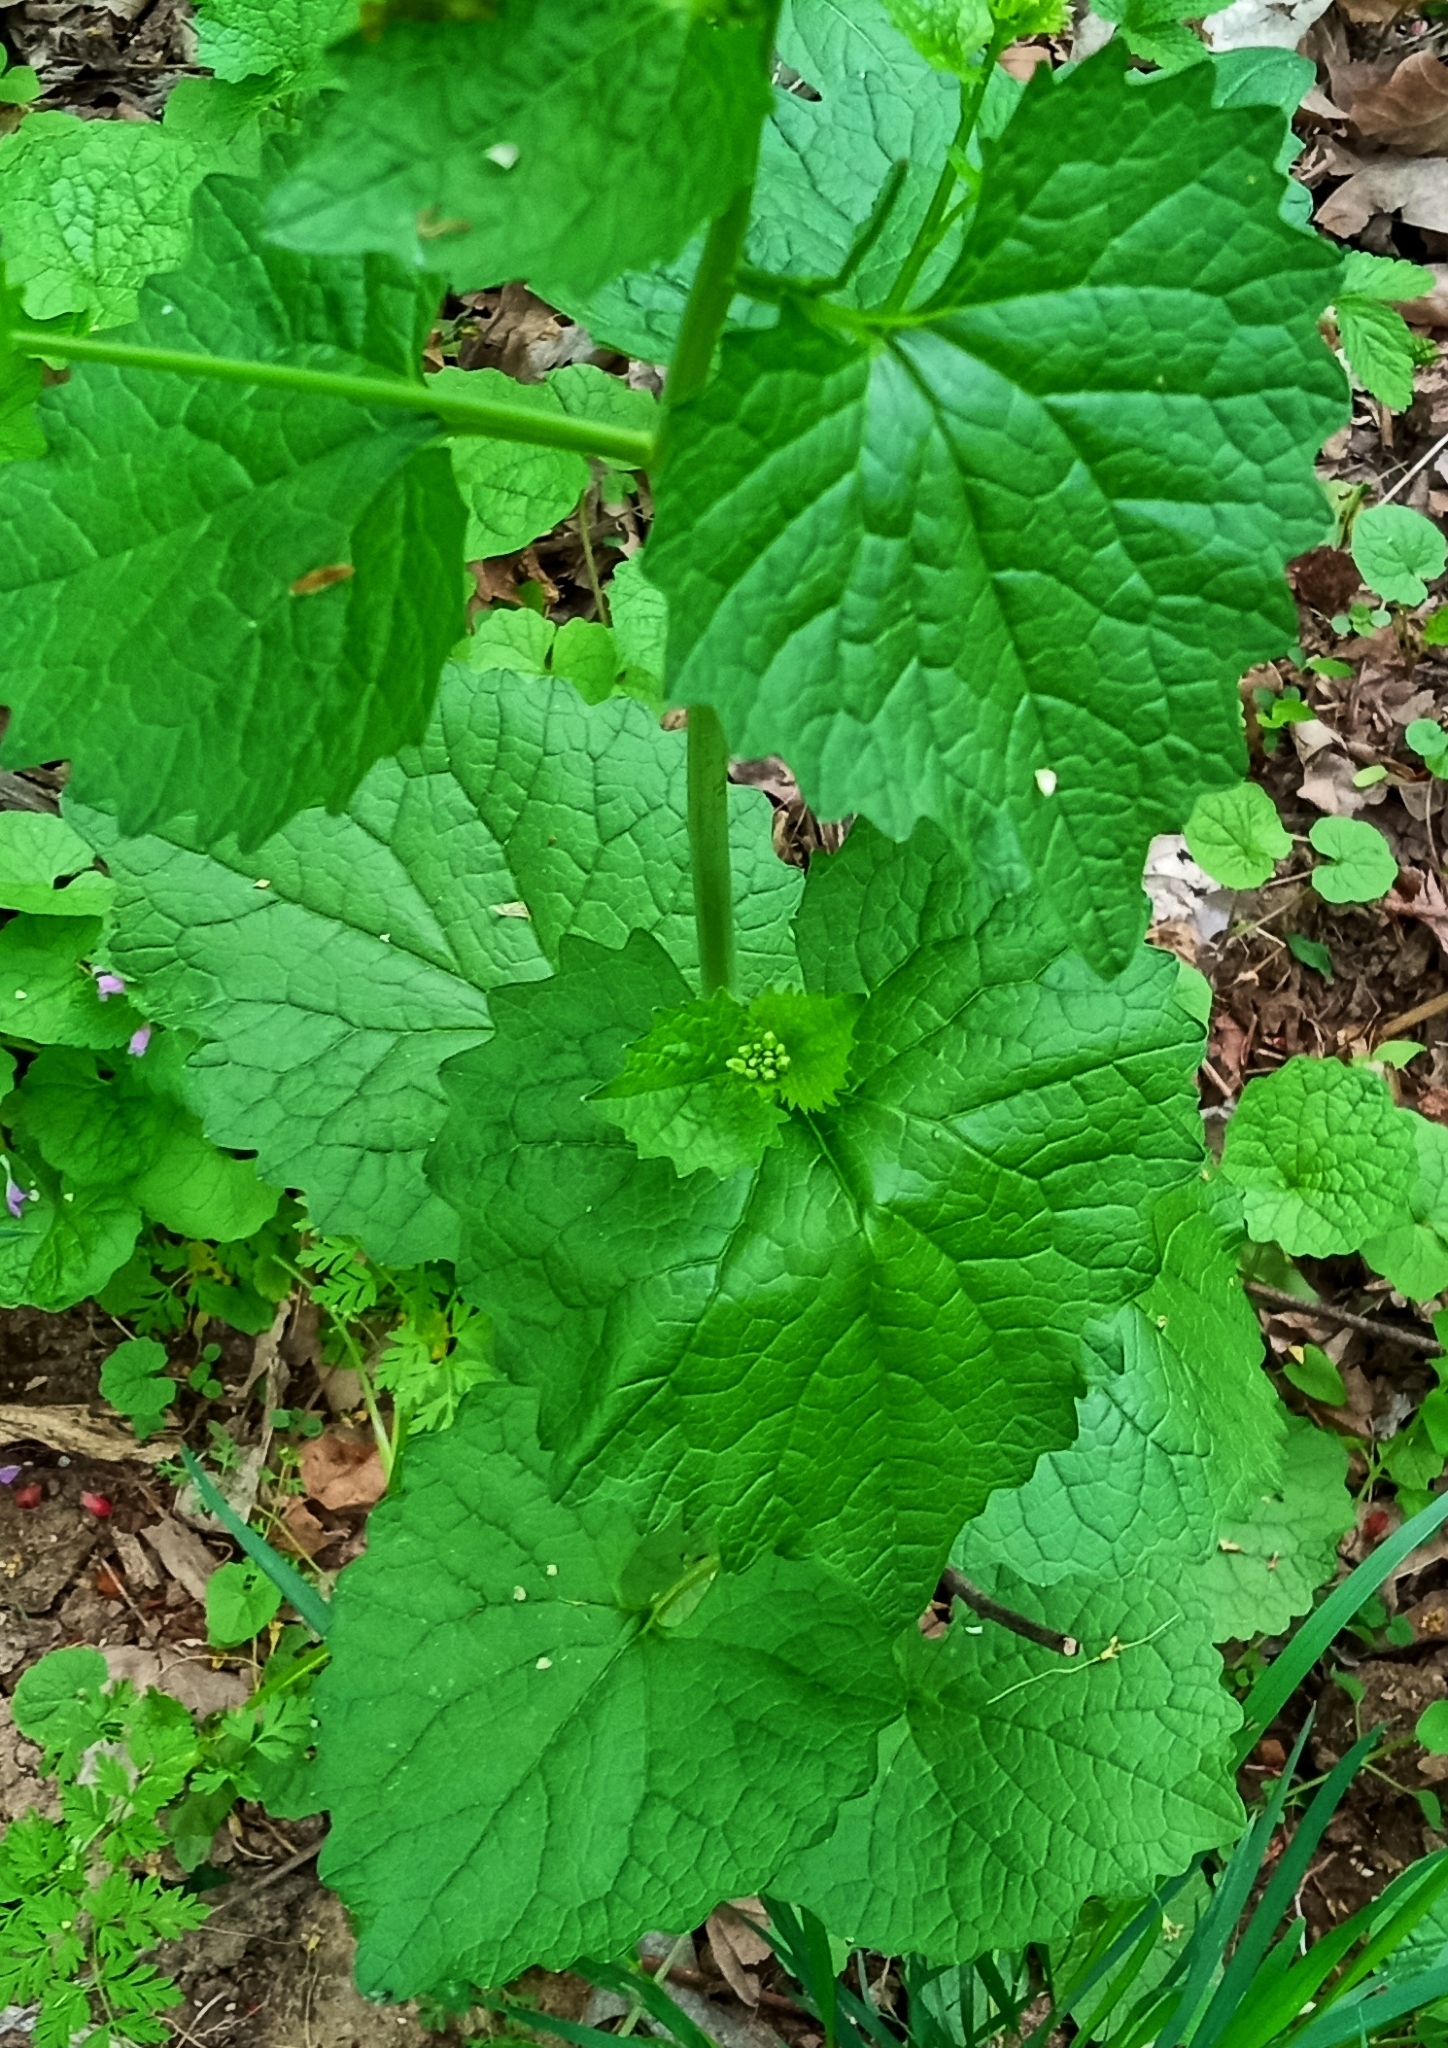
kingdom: Plantae
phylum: Tracheophyta
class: Magnoliopsida
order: Brassicales
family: Brassicaceae
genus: Alliaria
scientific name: Alliaria petiolata
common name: Garlic mustard
